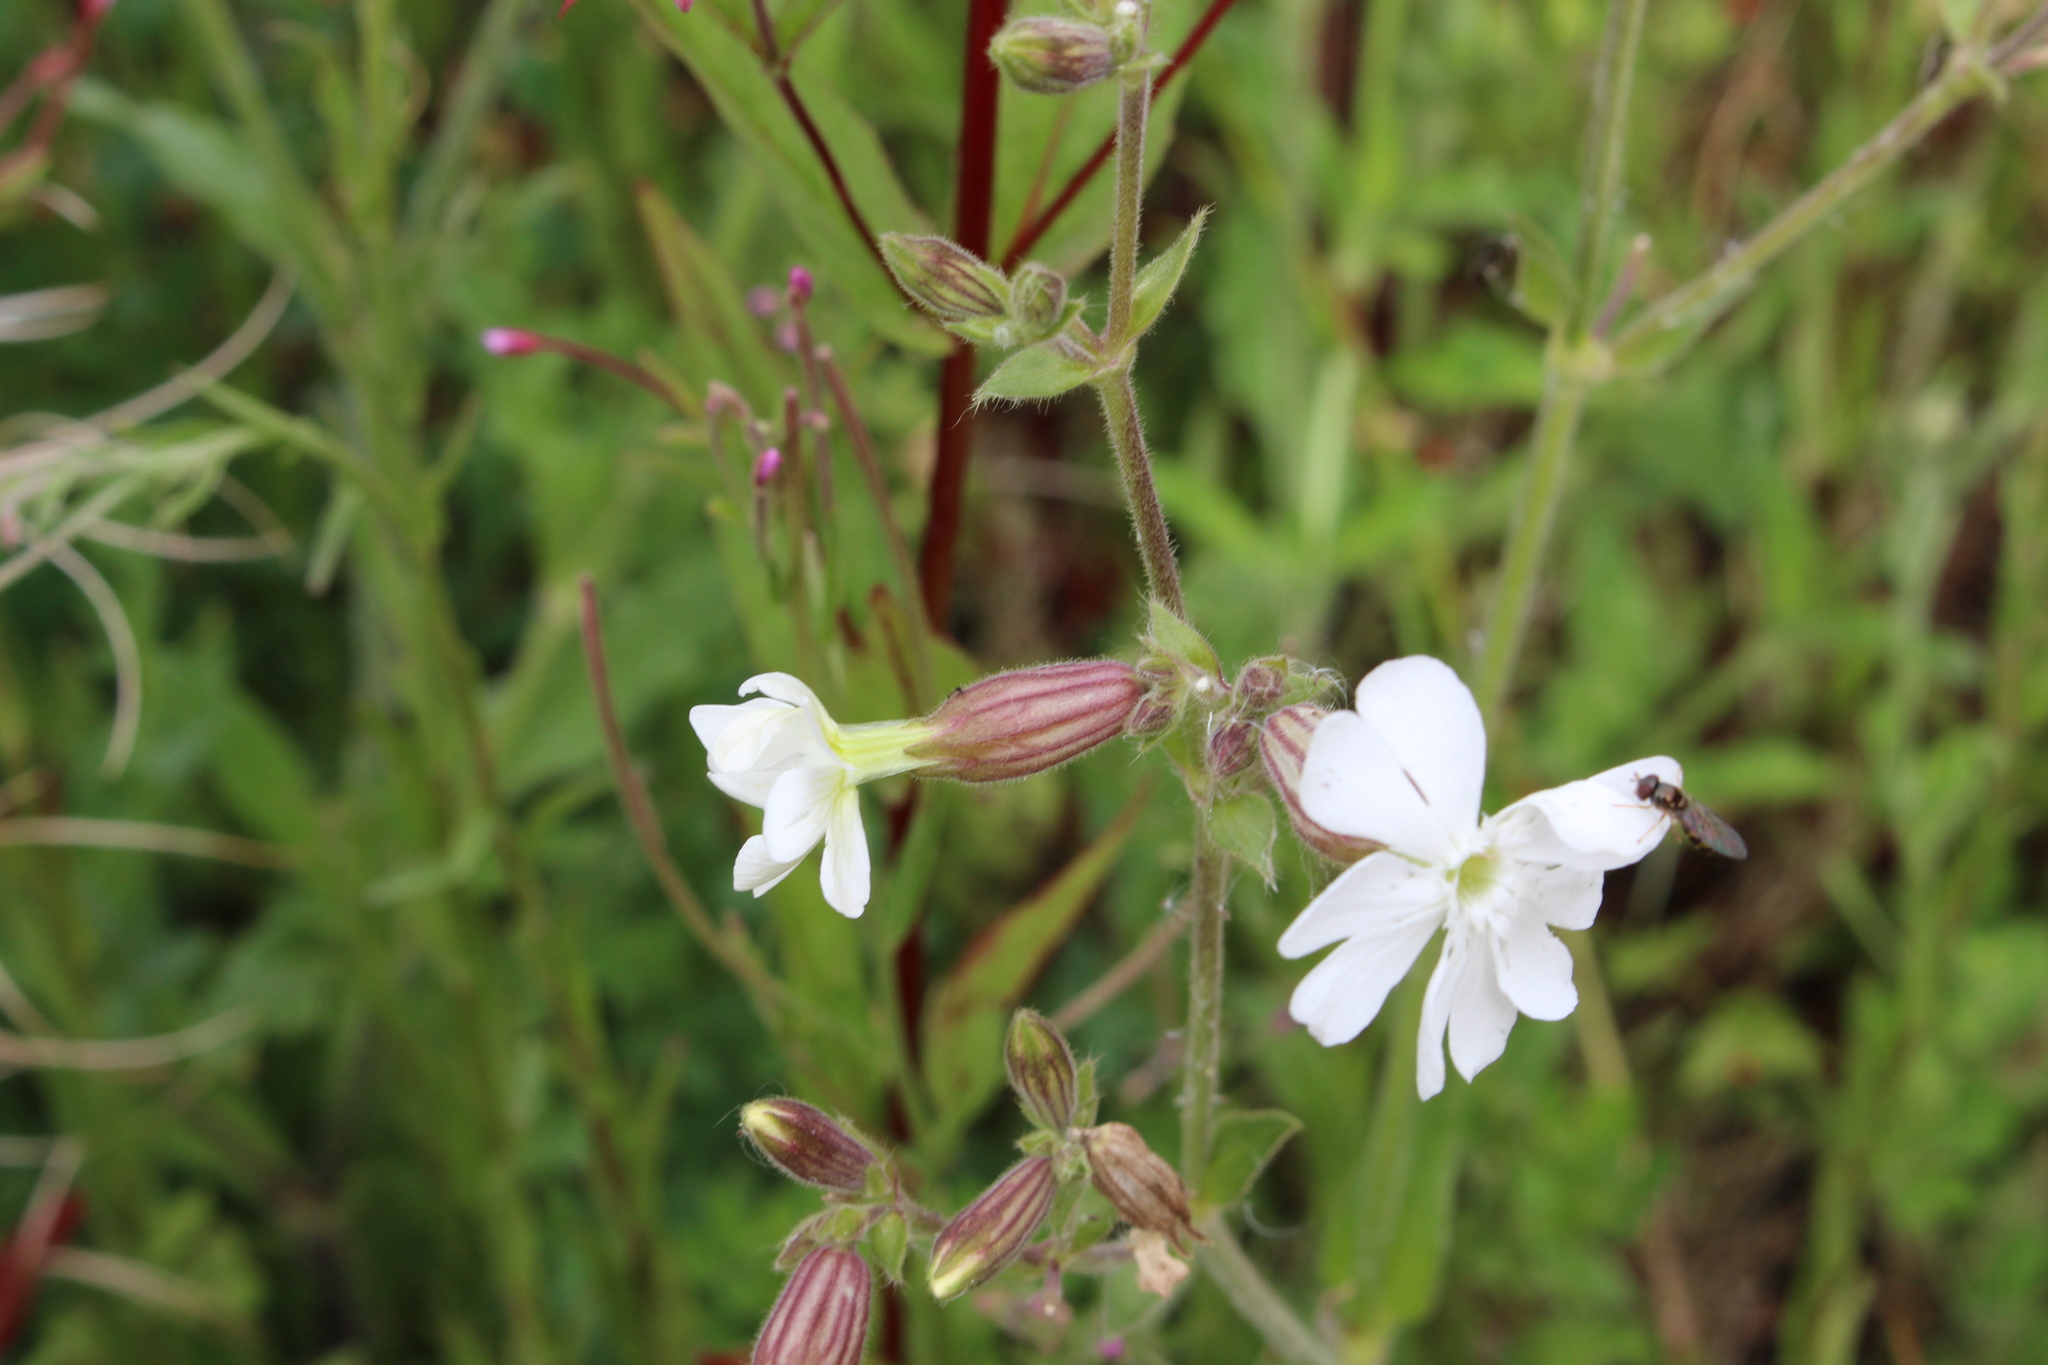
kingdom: Plantae
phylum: Tracheophyta
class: Magnoliopsida
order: Caryophyllales
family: Caryophyllaceae
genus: Silene
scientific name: Silene latifolia
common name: White campion
